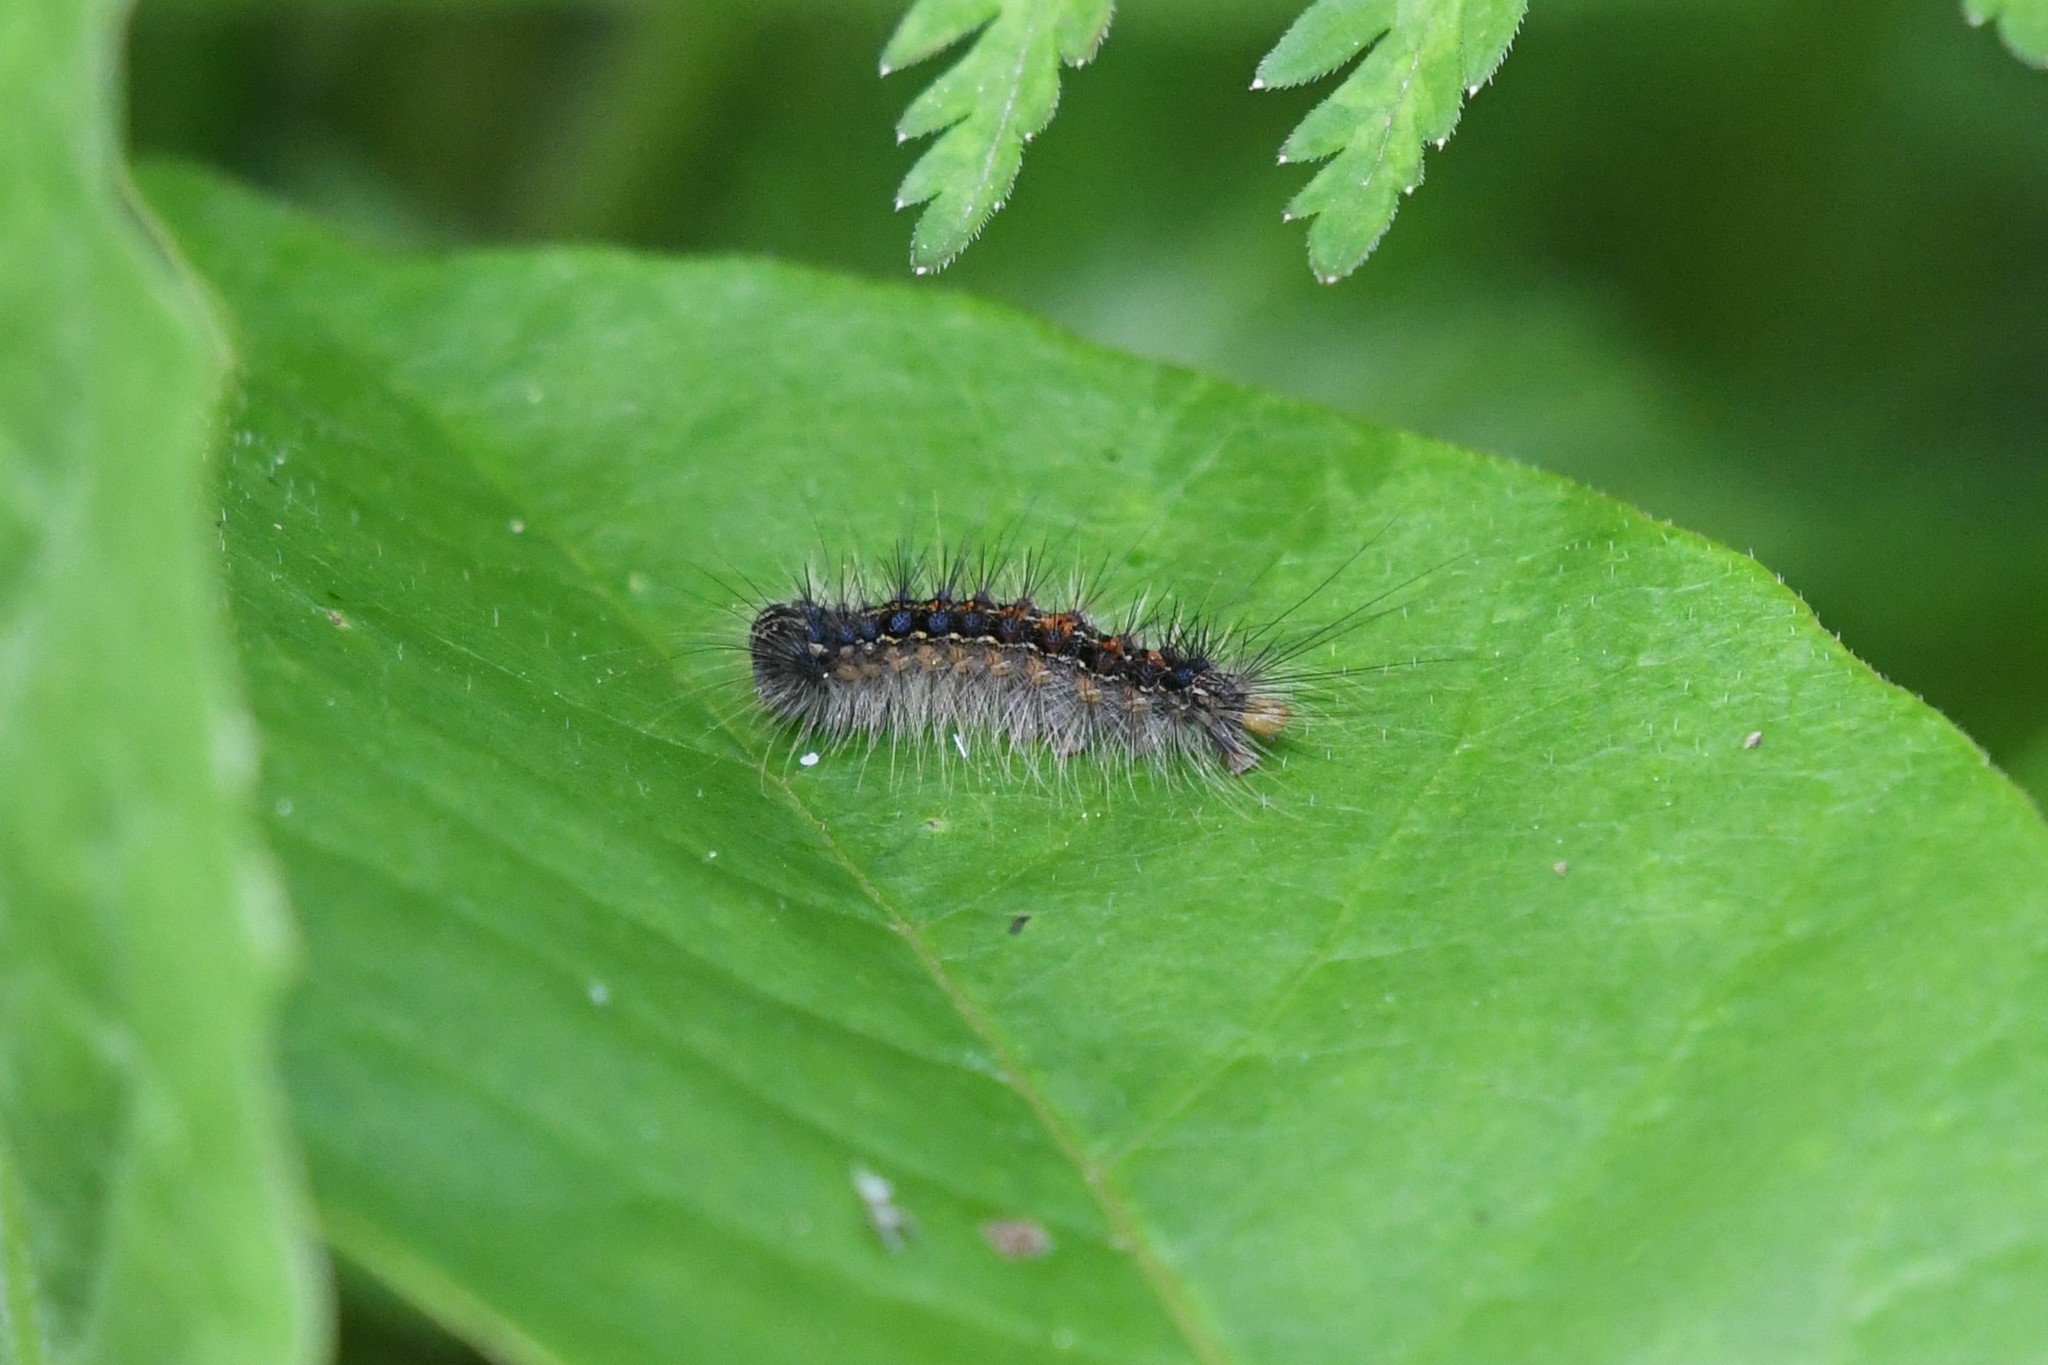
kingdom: Animalia
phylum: Arthropoda
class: Insecta
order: Lepidoptera
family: Erebidae
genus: Lymantria
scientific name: Lymantria dispar
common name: Gypsy moth
